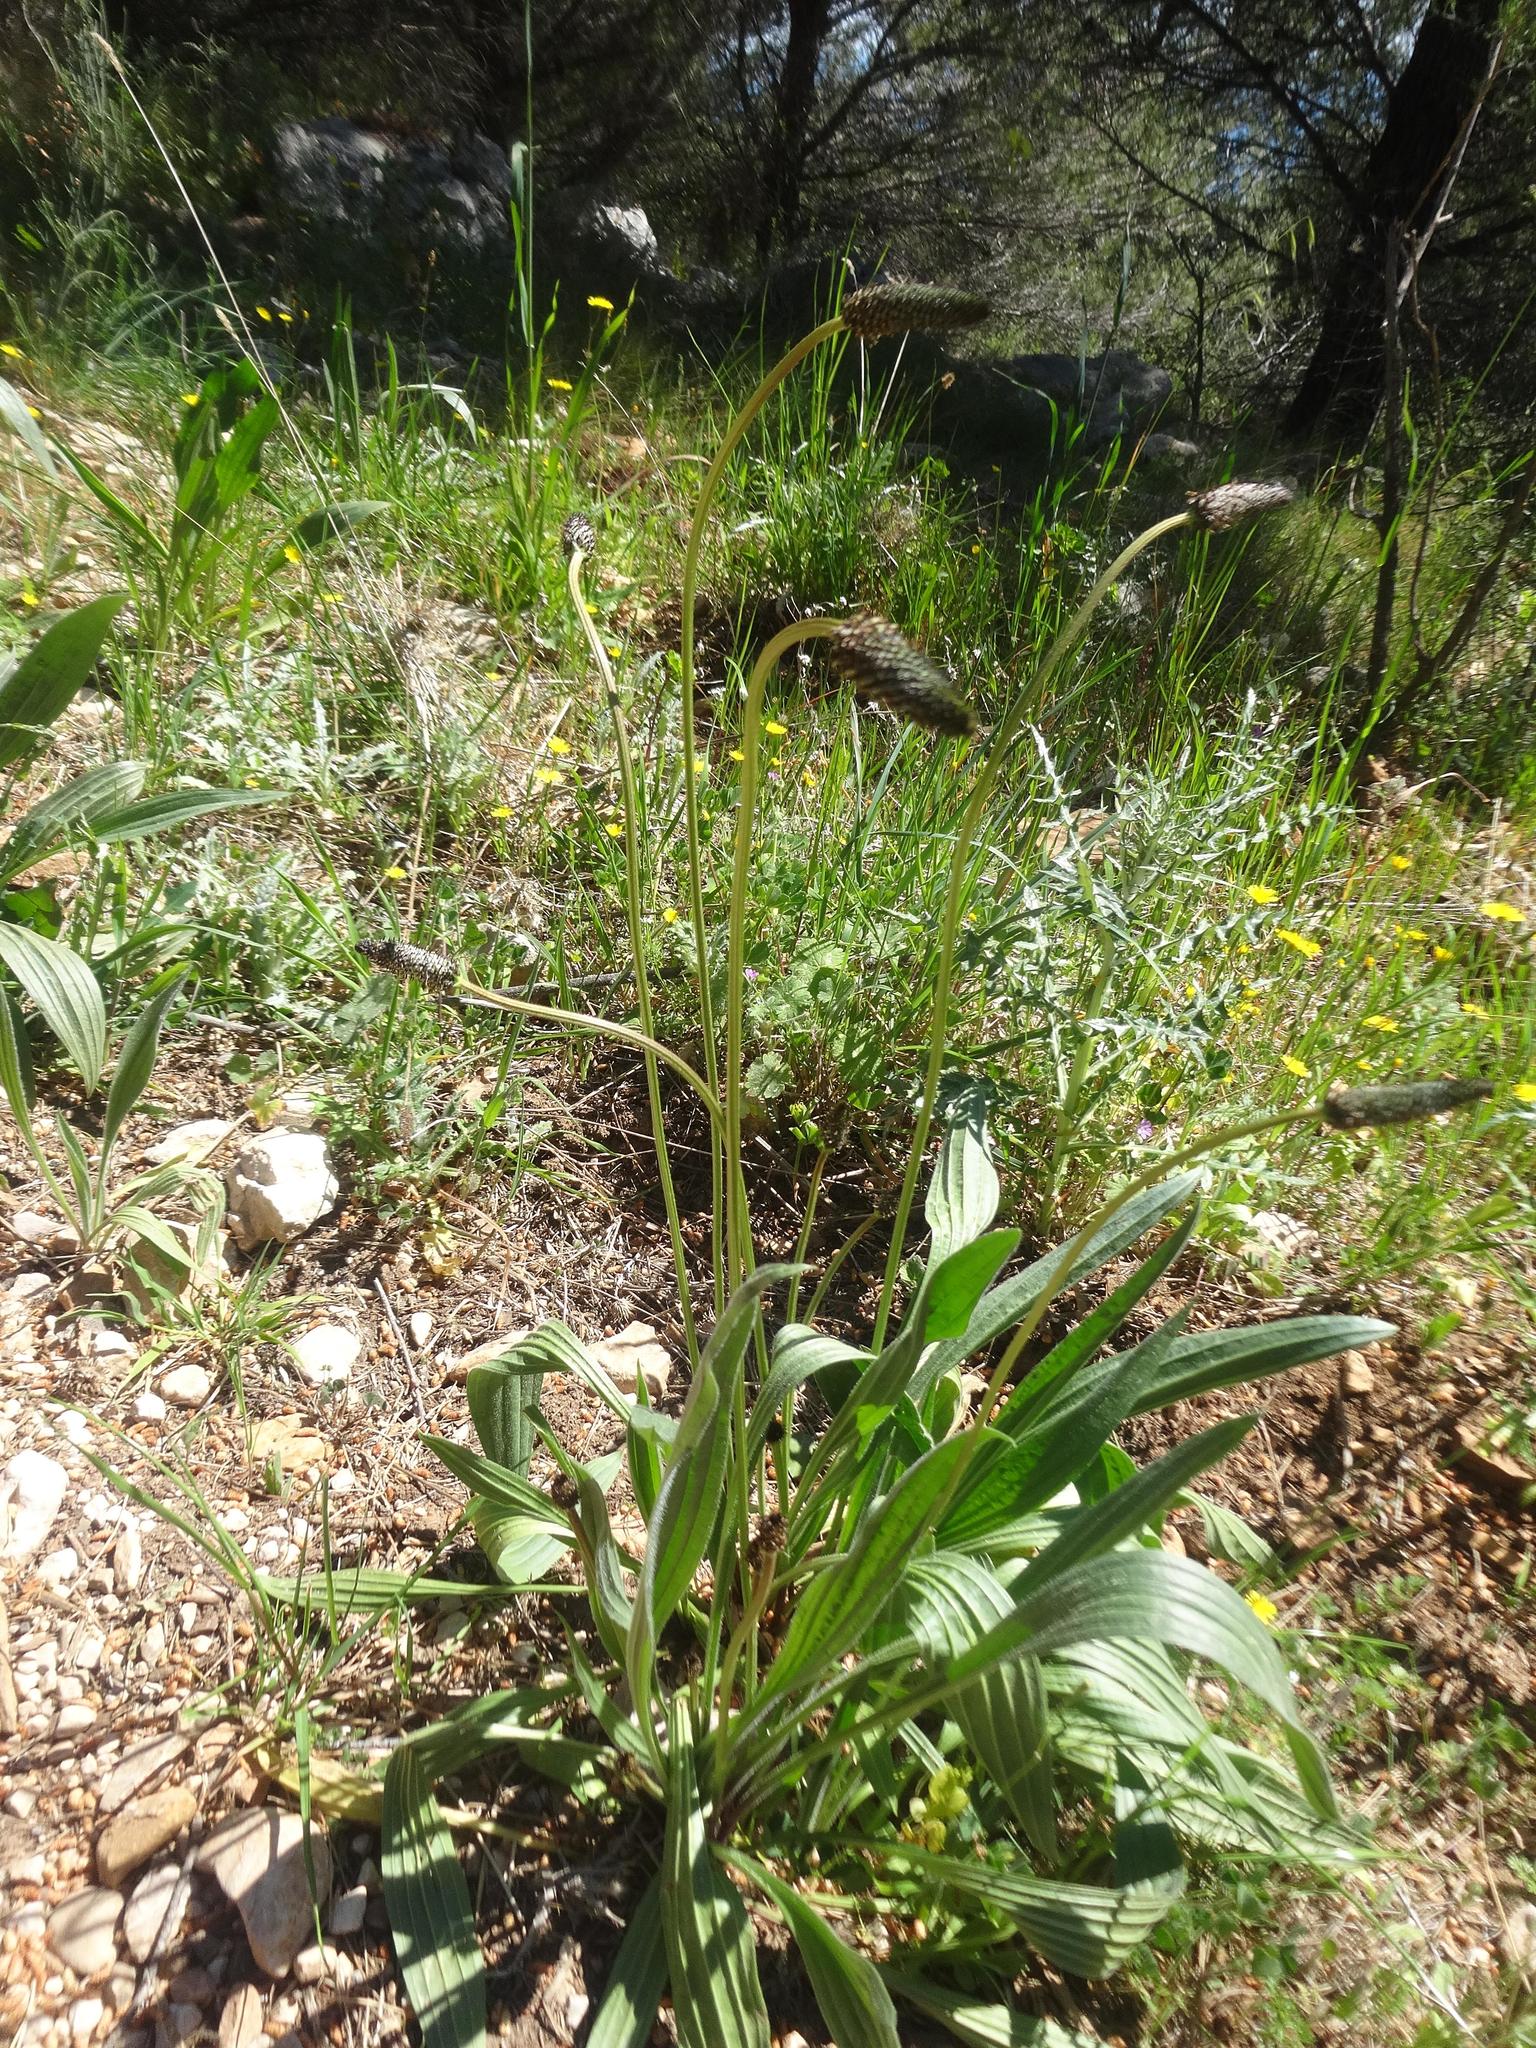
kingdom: Plantae
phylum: Tracheophyta
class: Magnoliopsida
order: Lamiales
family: Plantaginaceae
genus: Plantago
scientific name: Plantago lanceolata
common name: Ribwort plantain
